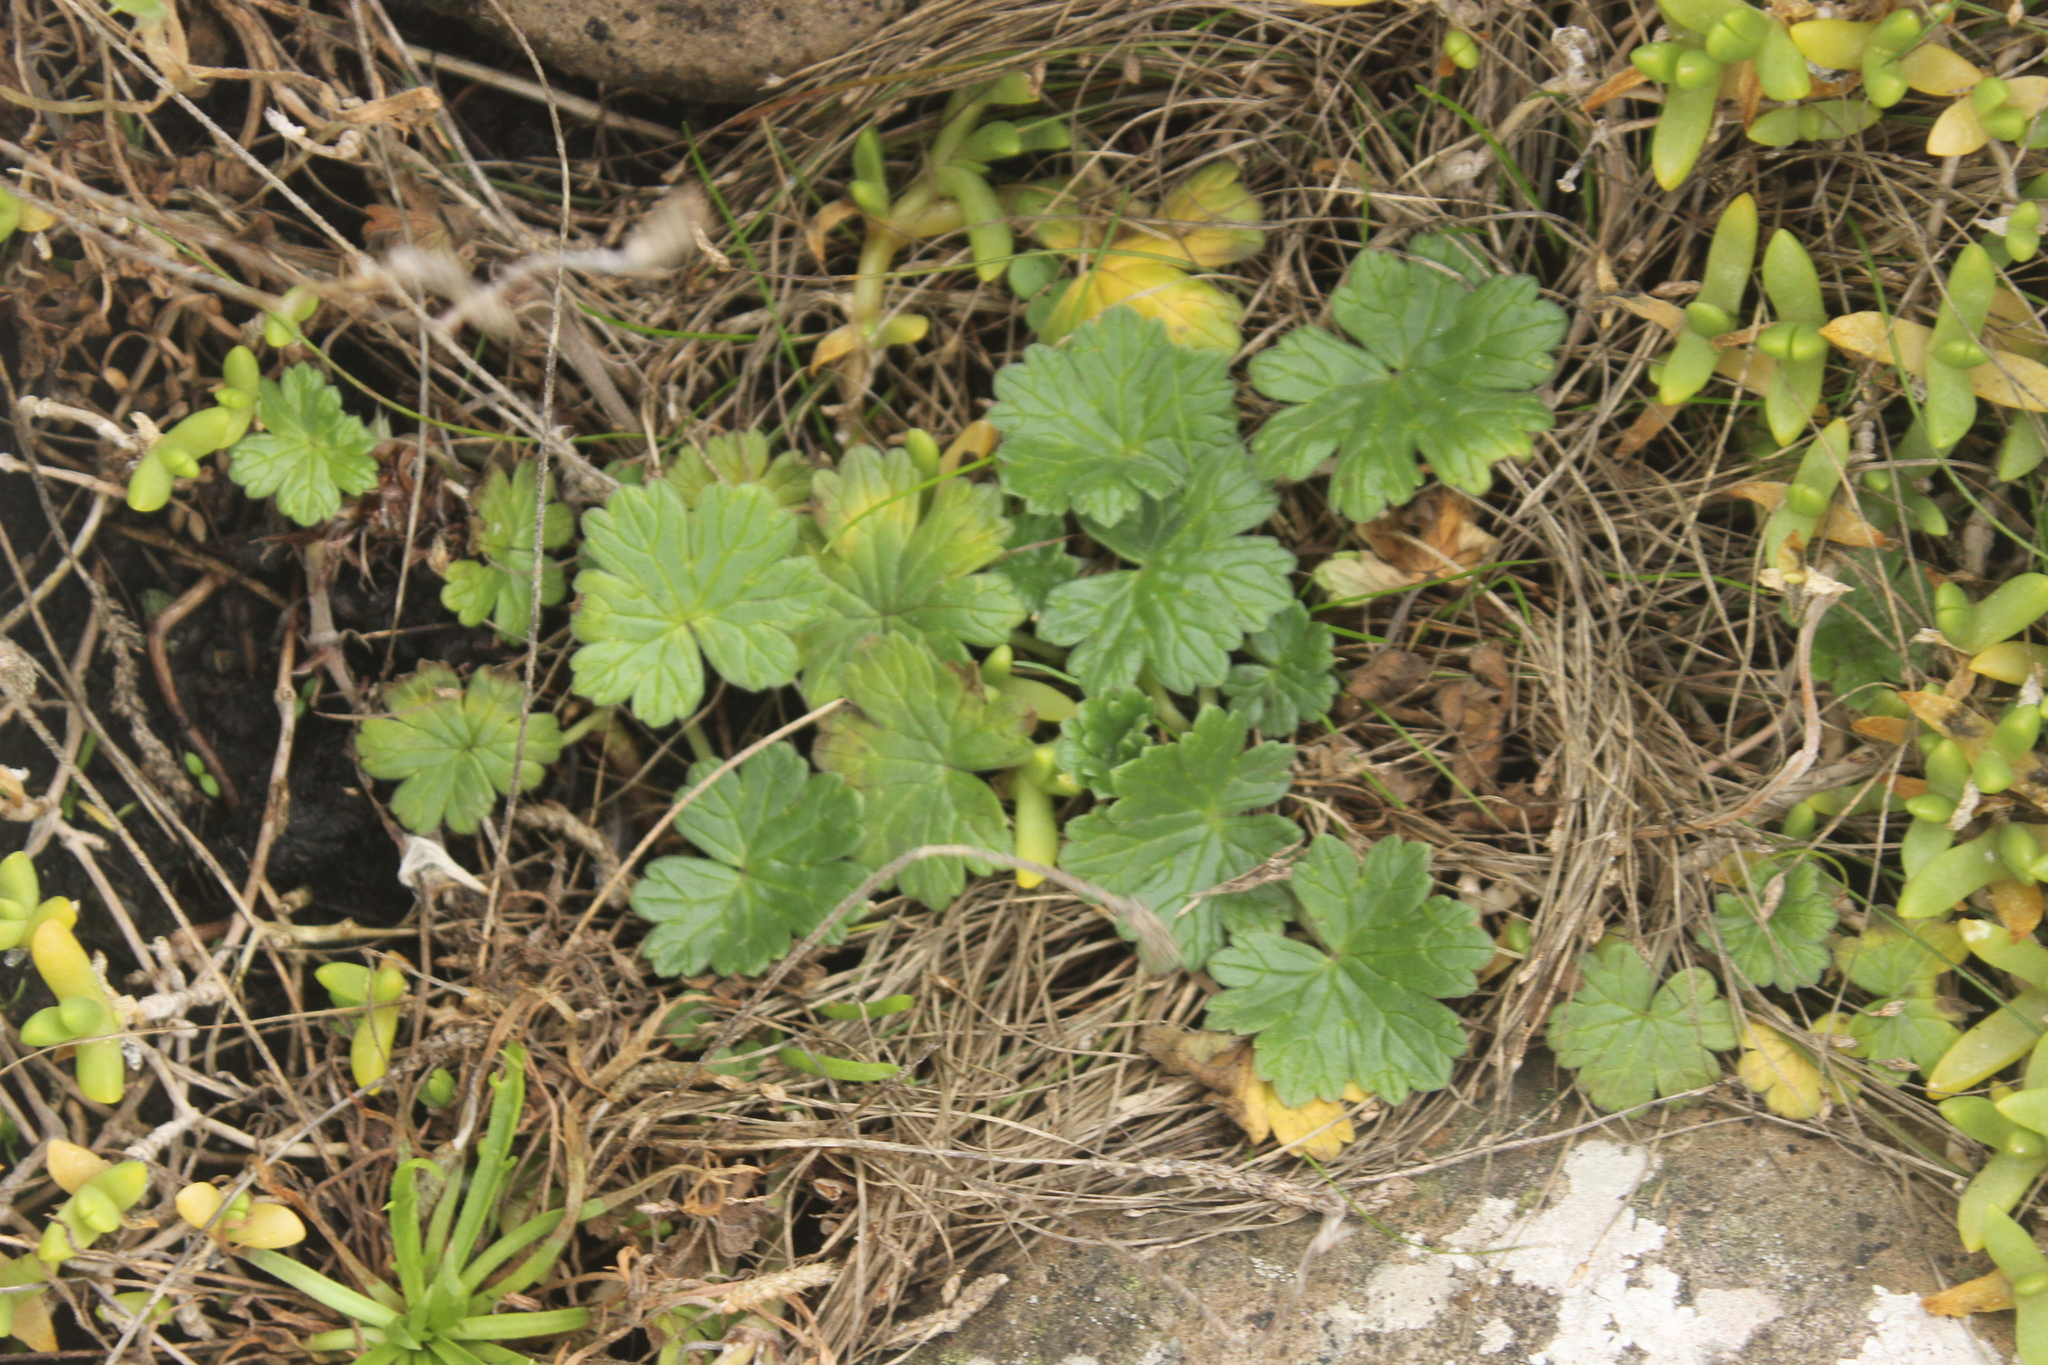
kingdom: Plantae
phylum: Tracheophyta
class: Magnoliopsida
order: Geraniales
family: Geraniaceae
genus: Geranium
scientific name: Geranium traversii
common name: Cranesbill
